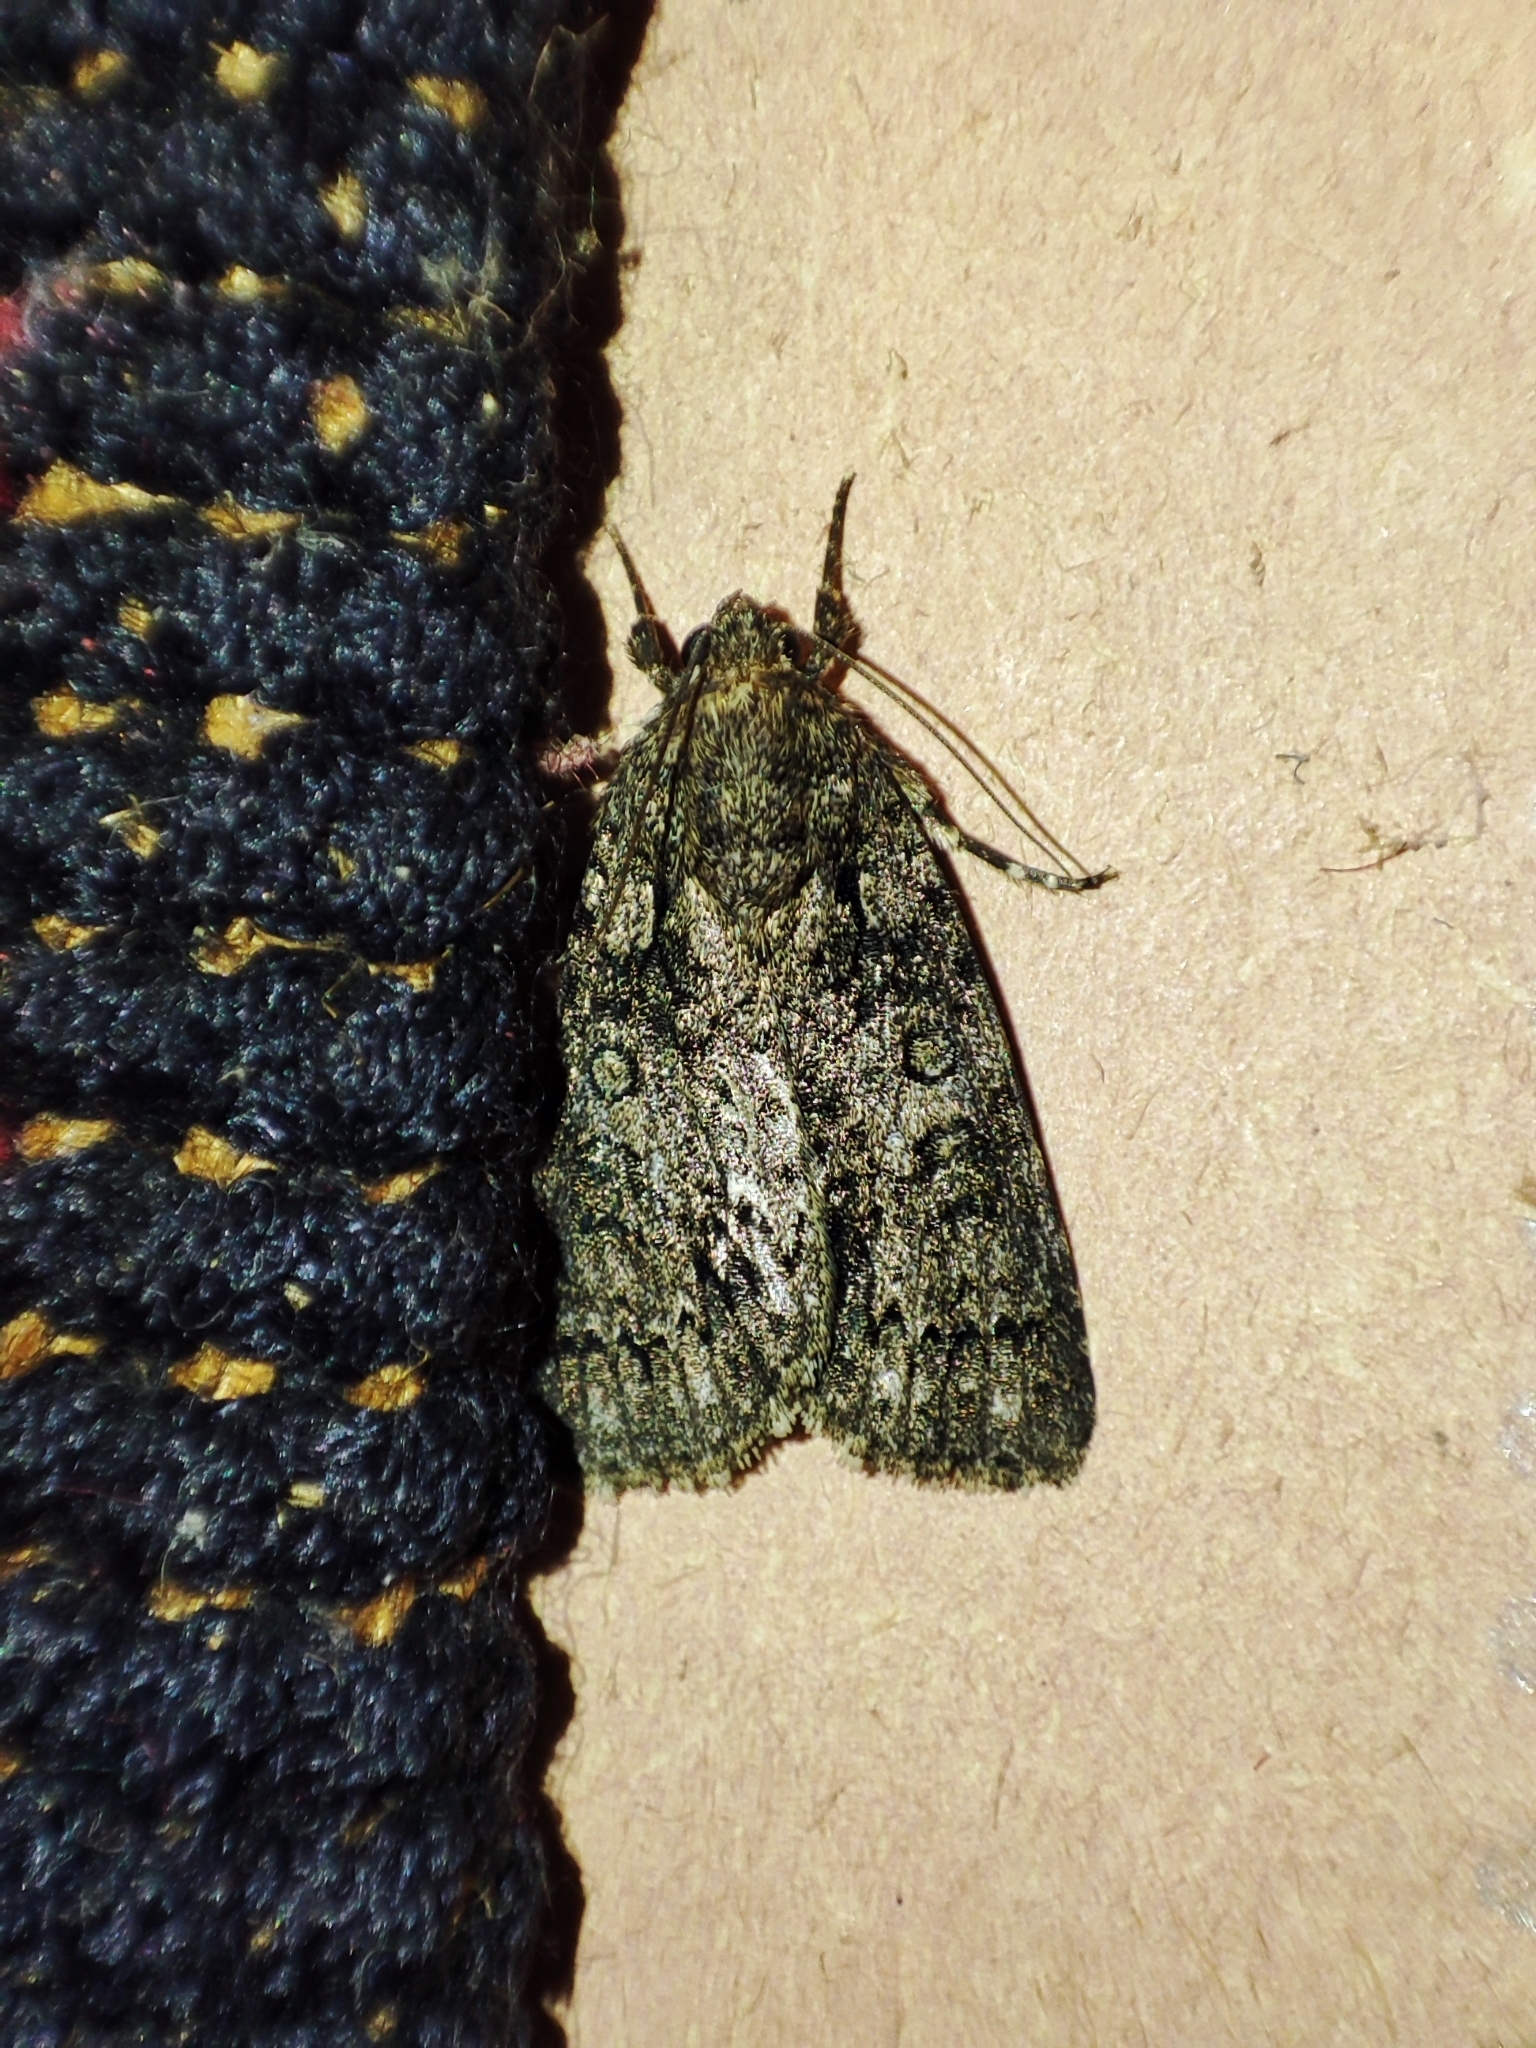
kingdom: Animalia
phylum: Arthropoda
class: Insecta
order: Lepidoptera
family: Noctuidae
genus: Acronicta
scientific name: Acronicta rumicis
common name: Knot grass
